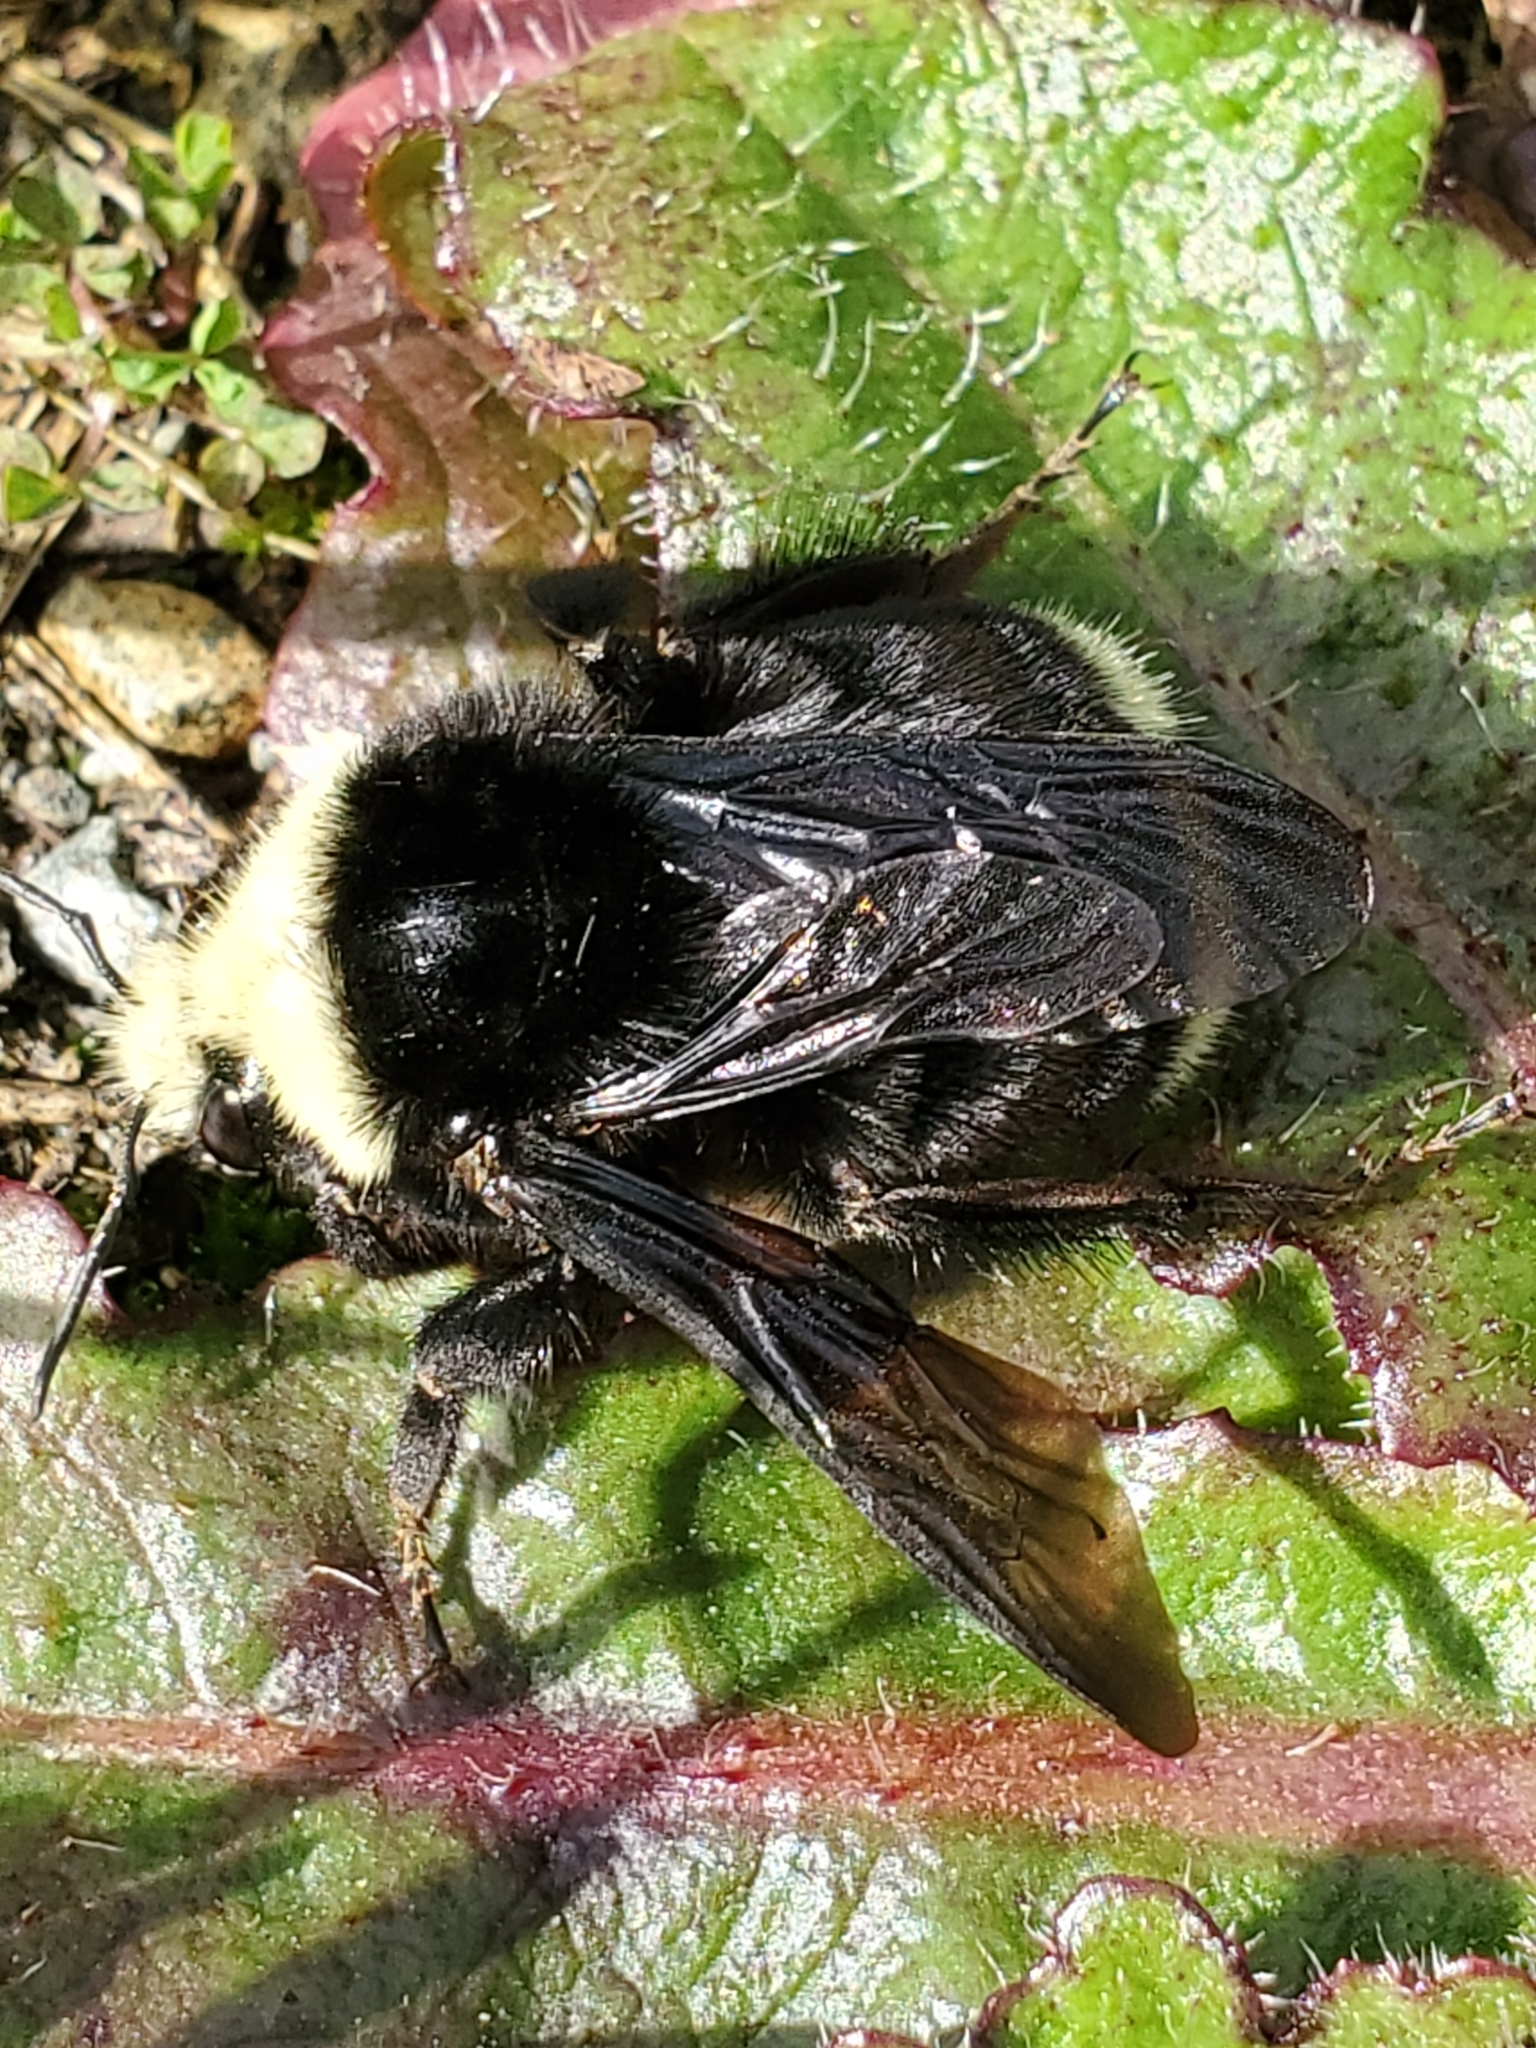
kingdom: Animalia
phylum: Arthropoda
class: Insecta
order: Hymenoptera
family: Apidae
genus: Bombus
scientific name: Bombus vosnesenskii
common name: Vosnesensky bumble bee
